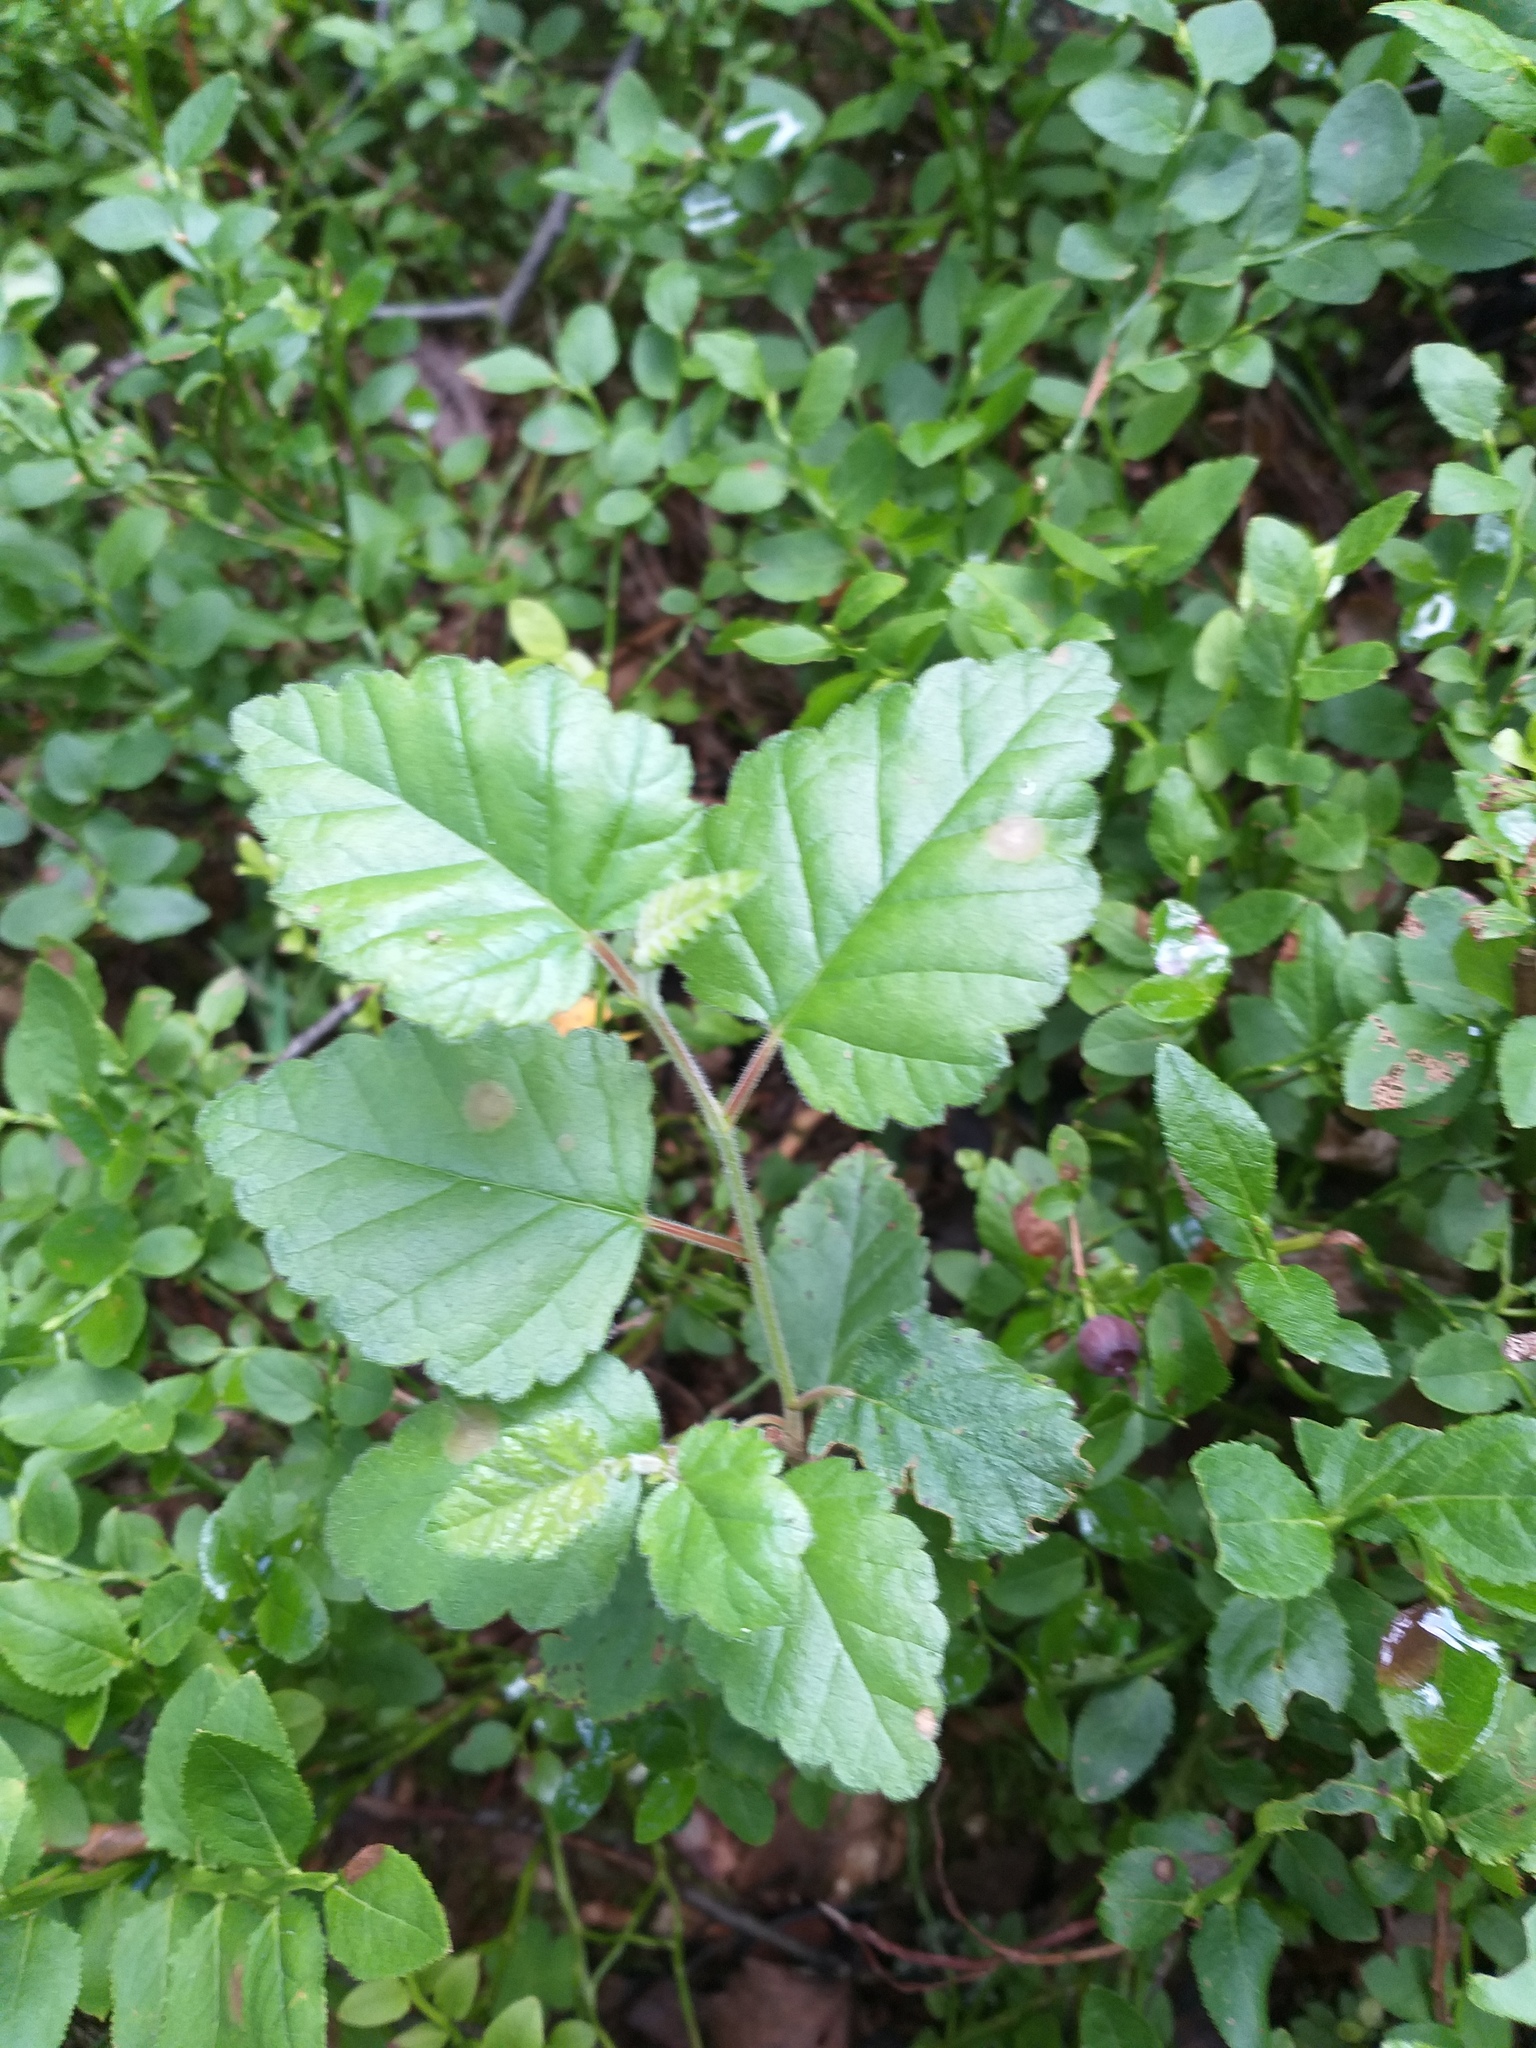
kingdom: Plantae
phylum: Tracheophyta
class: Magnoliopsida
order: Fagales
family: Betulaceae
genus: Betula
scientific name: Betula pubescens
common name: Downy birch
